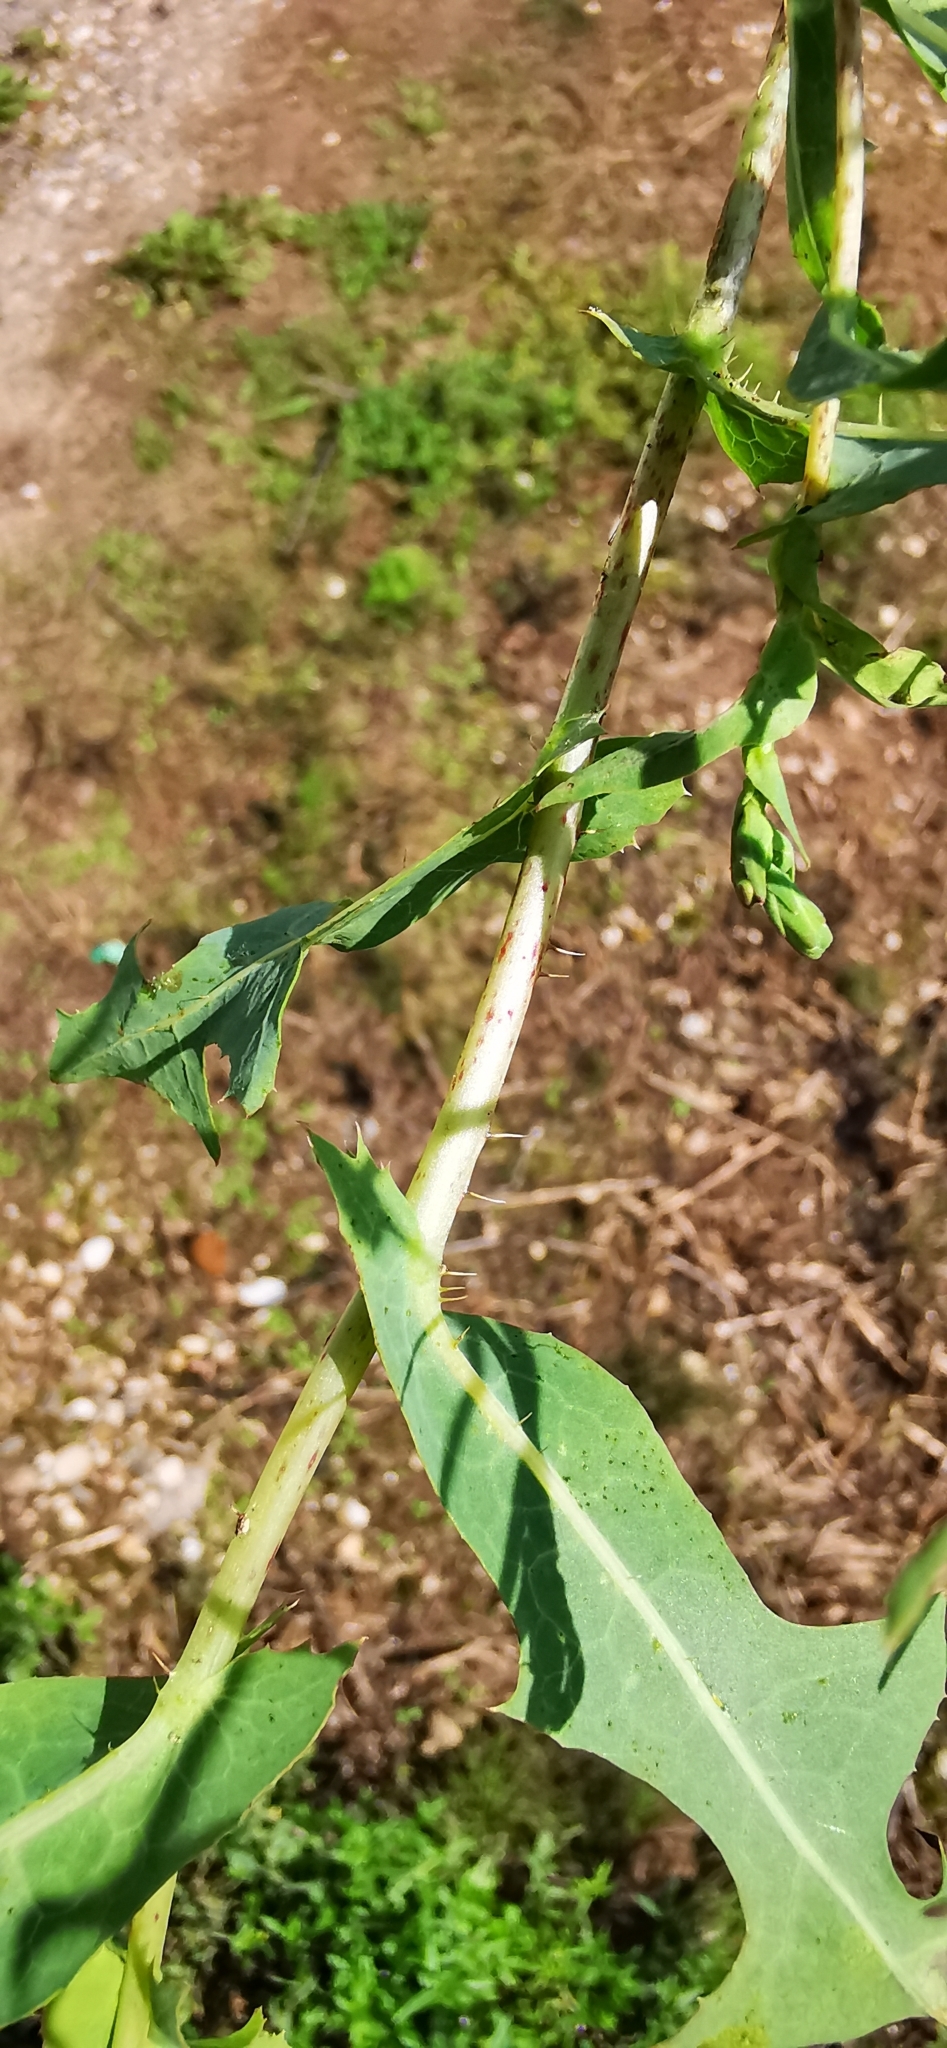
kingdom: Plantae
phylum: Tracheophyta
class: Magnoliopsida
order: Asterales
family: Asteraceae
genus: Lactuca
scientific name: Lactuca serriola
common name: Prickly lettuce
